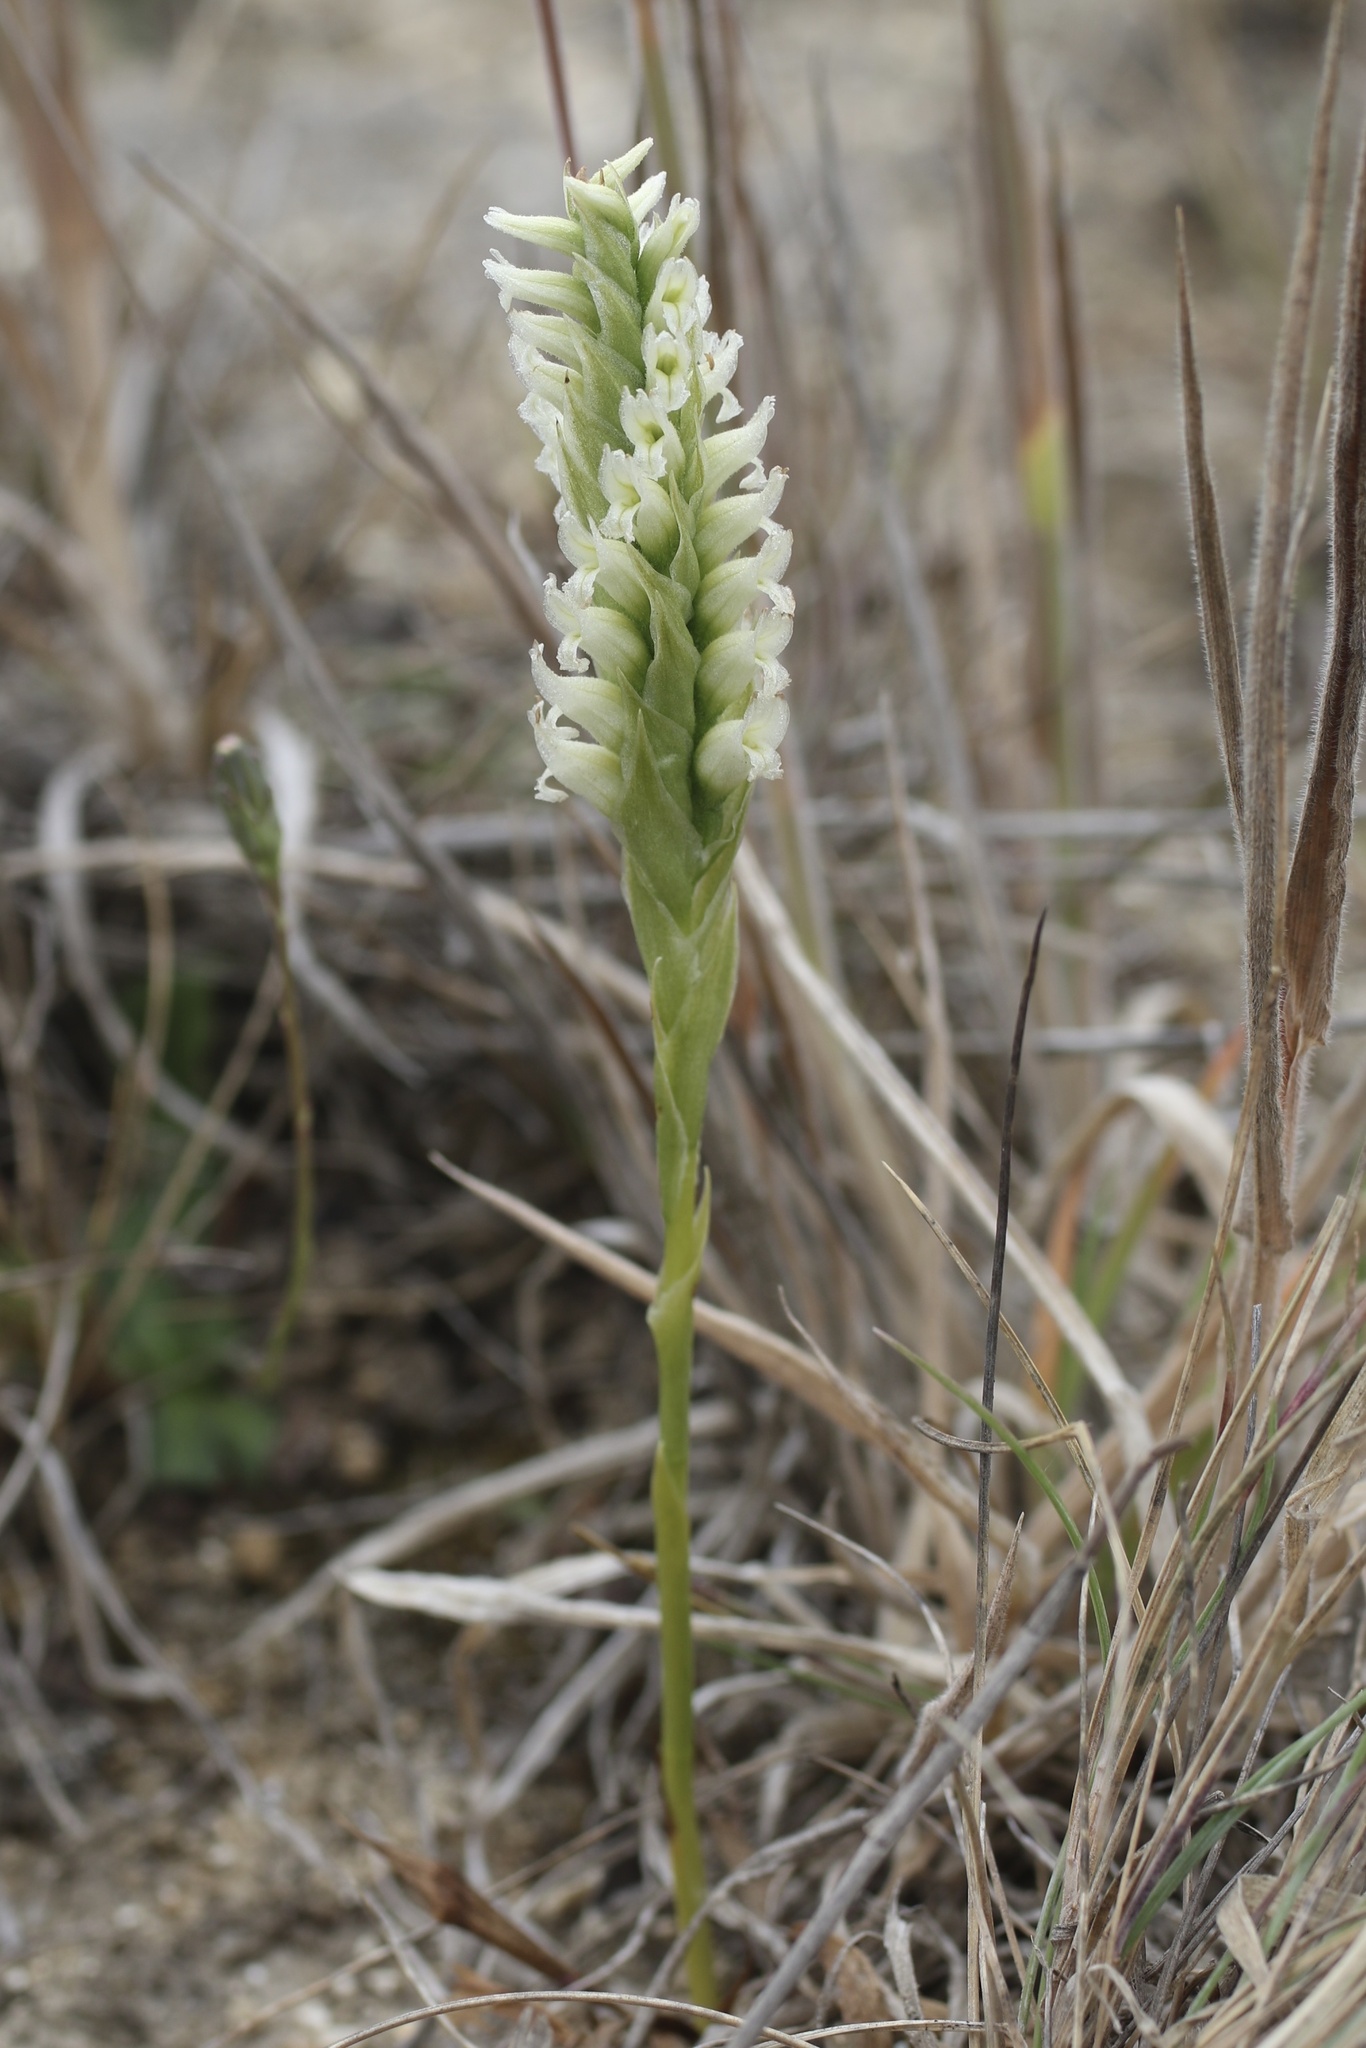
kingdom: Plantae
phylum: Tracheophyta
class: Liliopsida
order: Asparagales
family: Orchidaceae
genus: Spiranthes
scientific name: Spiranthes romanzoffiana
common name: Irish lady's-tresses
